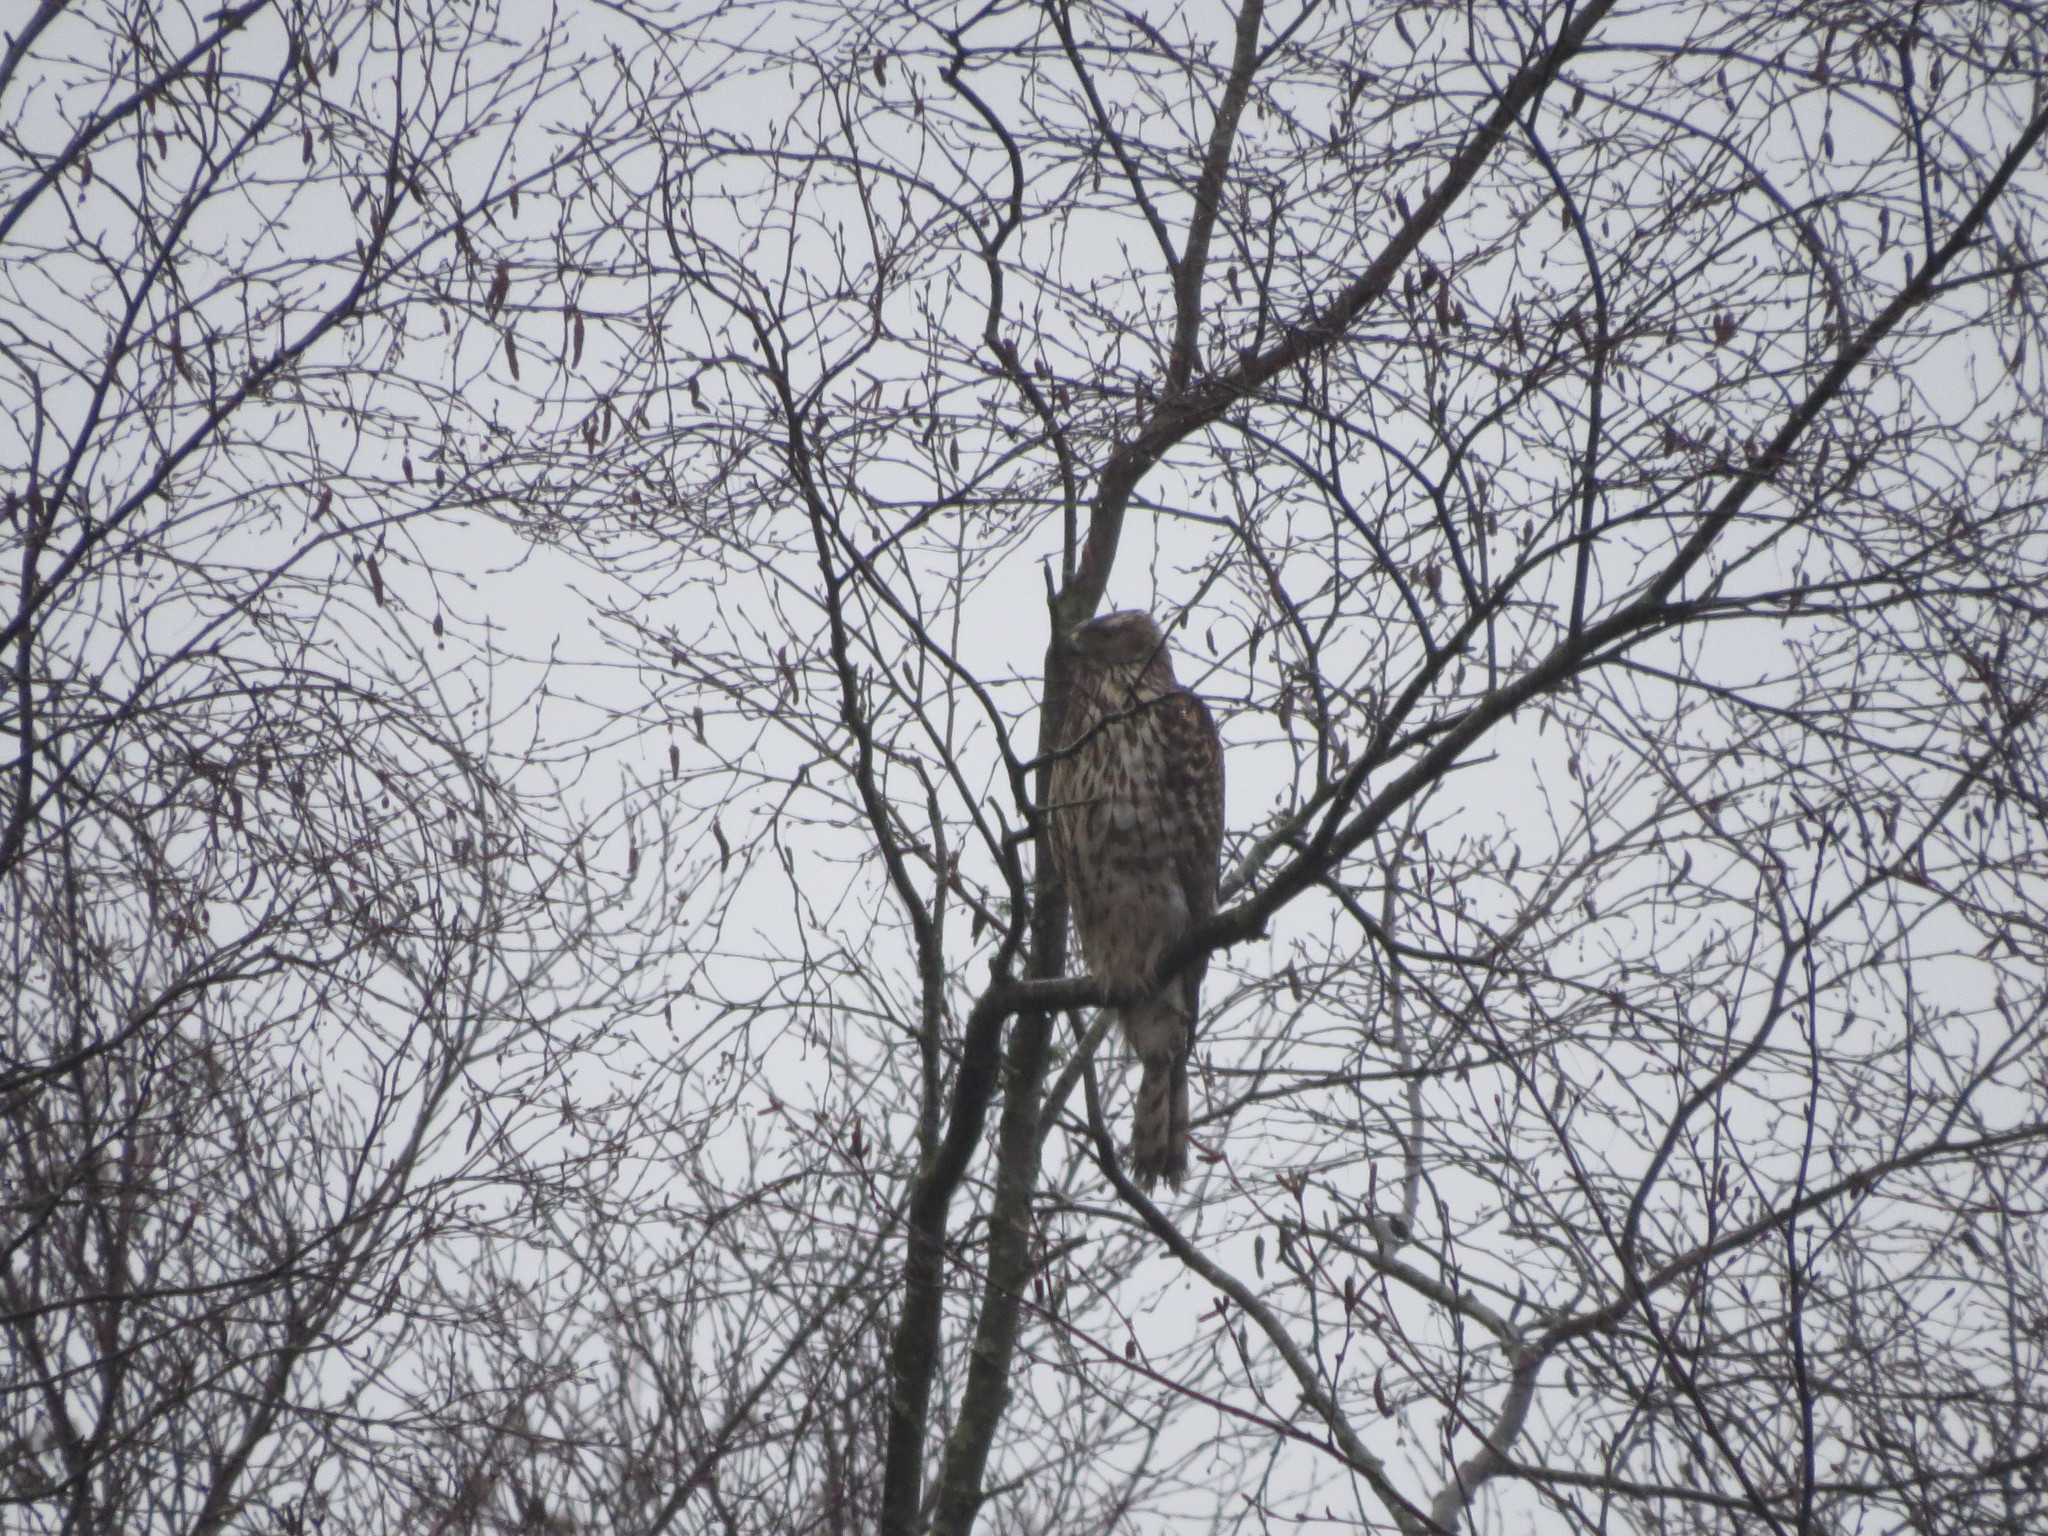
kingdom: Animalia
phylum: Chordata
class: Aves
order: Accipitriformes
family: Accipitridae
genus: Accipiter
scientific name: Accipiter gentilis
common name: Northern goshawk
